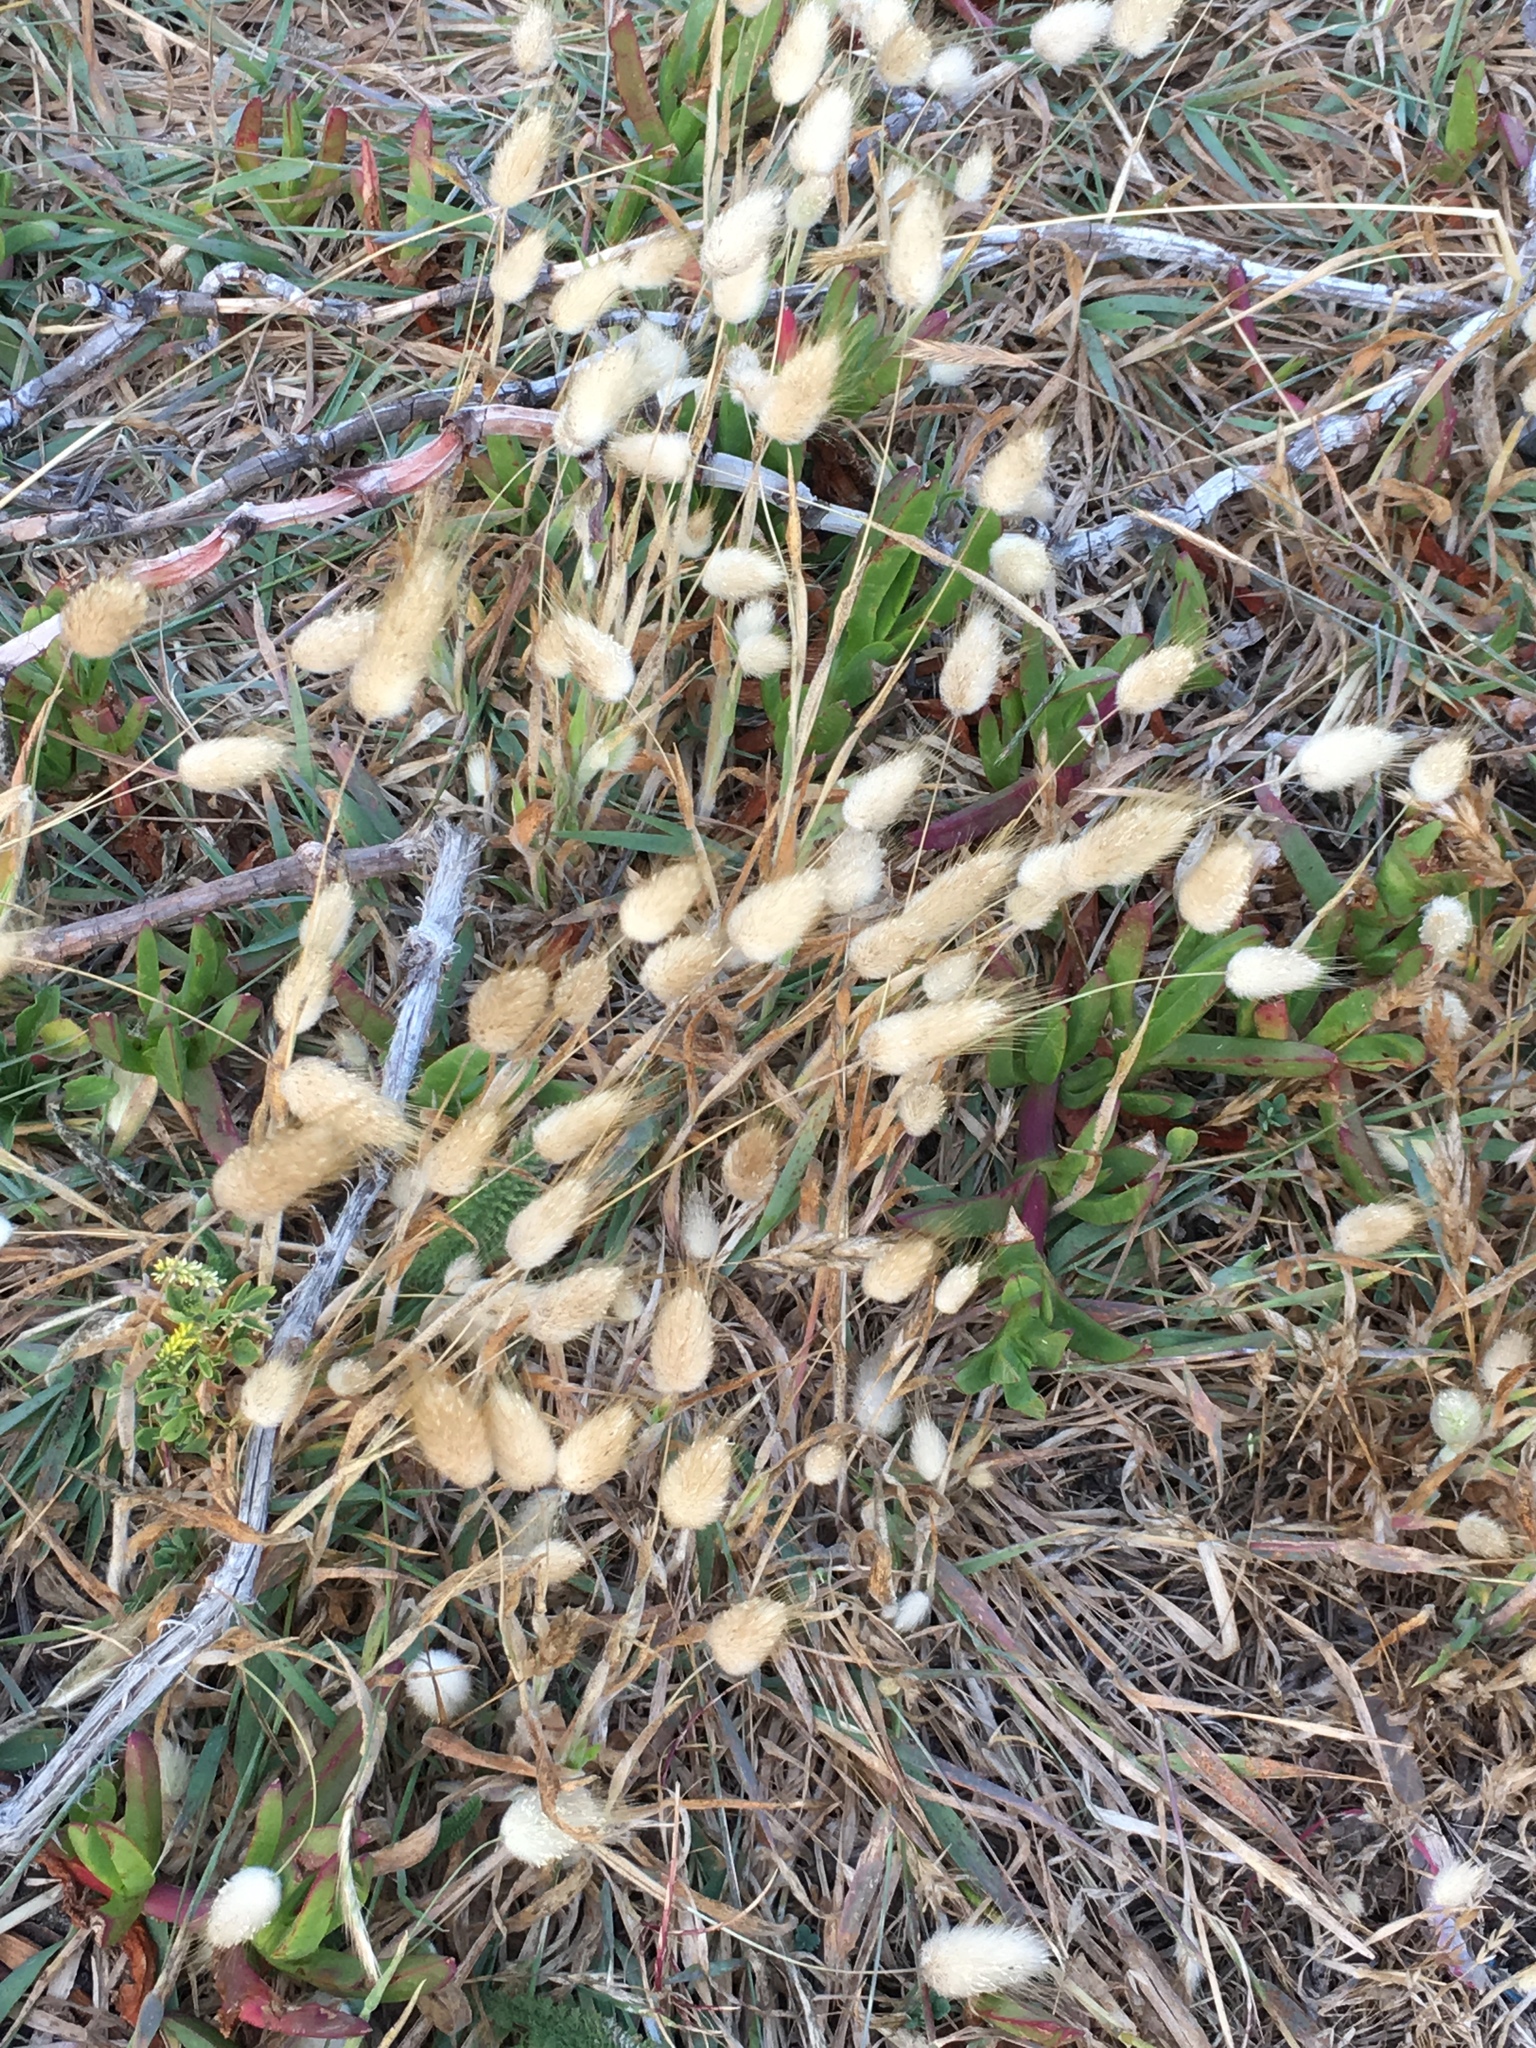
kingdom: Plantae
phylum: Tracheophyta
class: Liliopsida
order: Poales
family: Poaceae
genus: Lagurus
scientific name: Lagurus ovatus
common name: Hare's-tail
